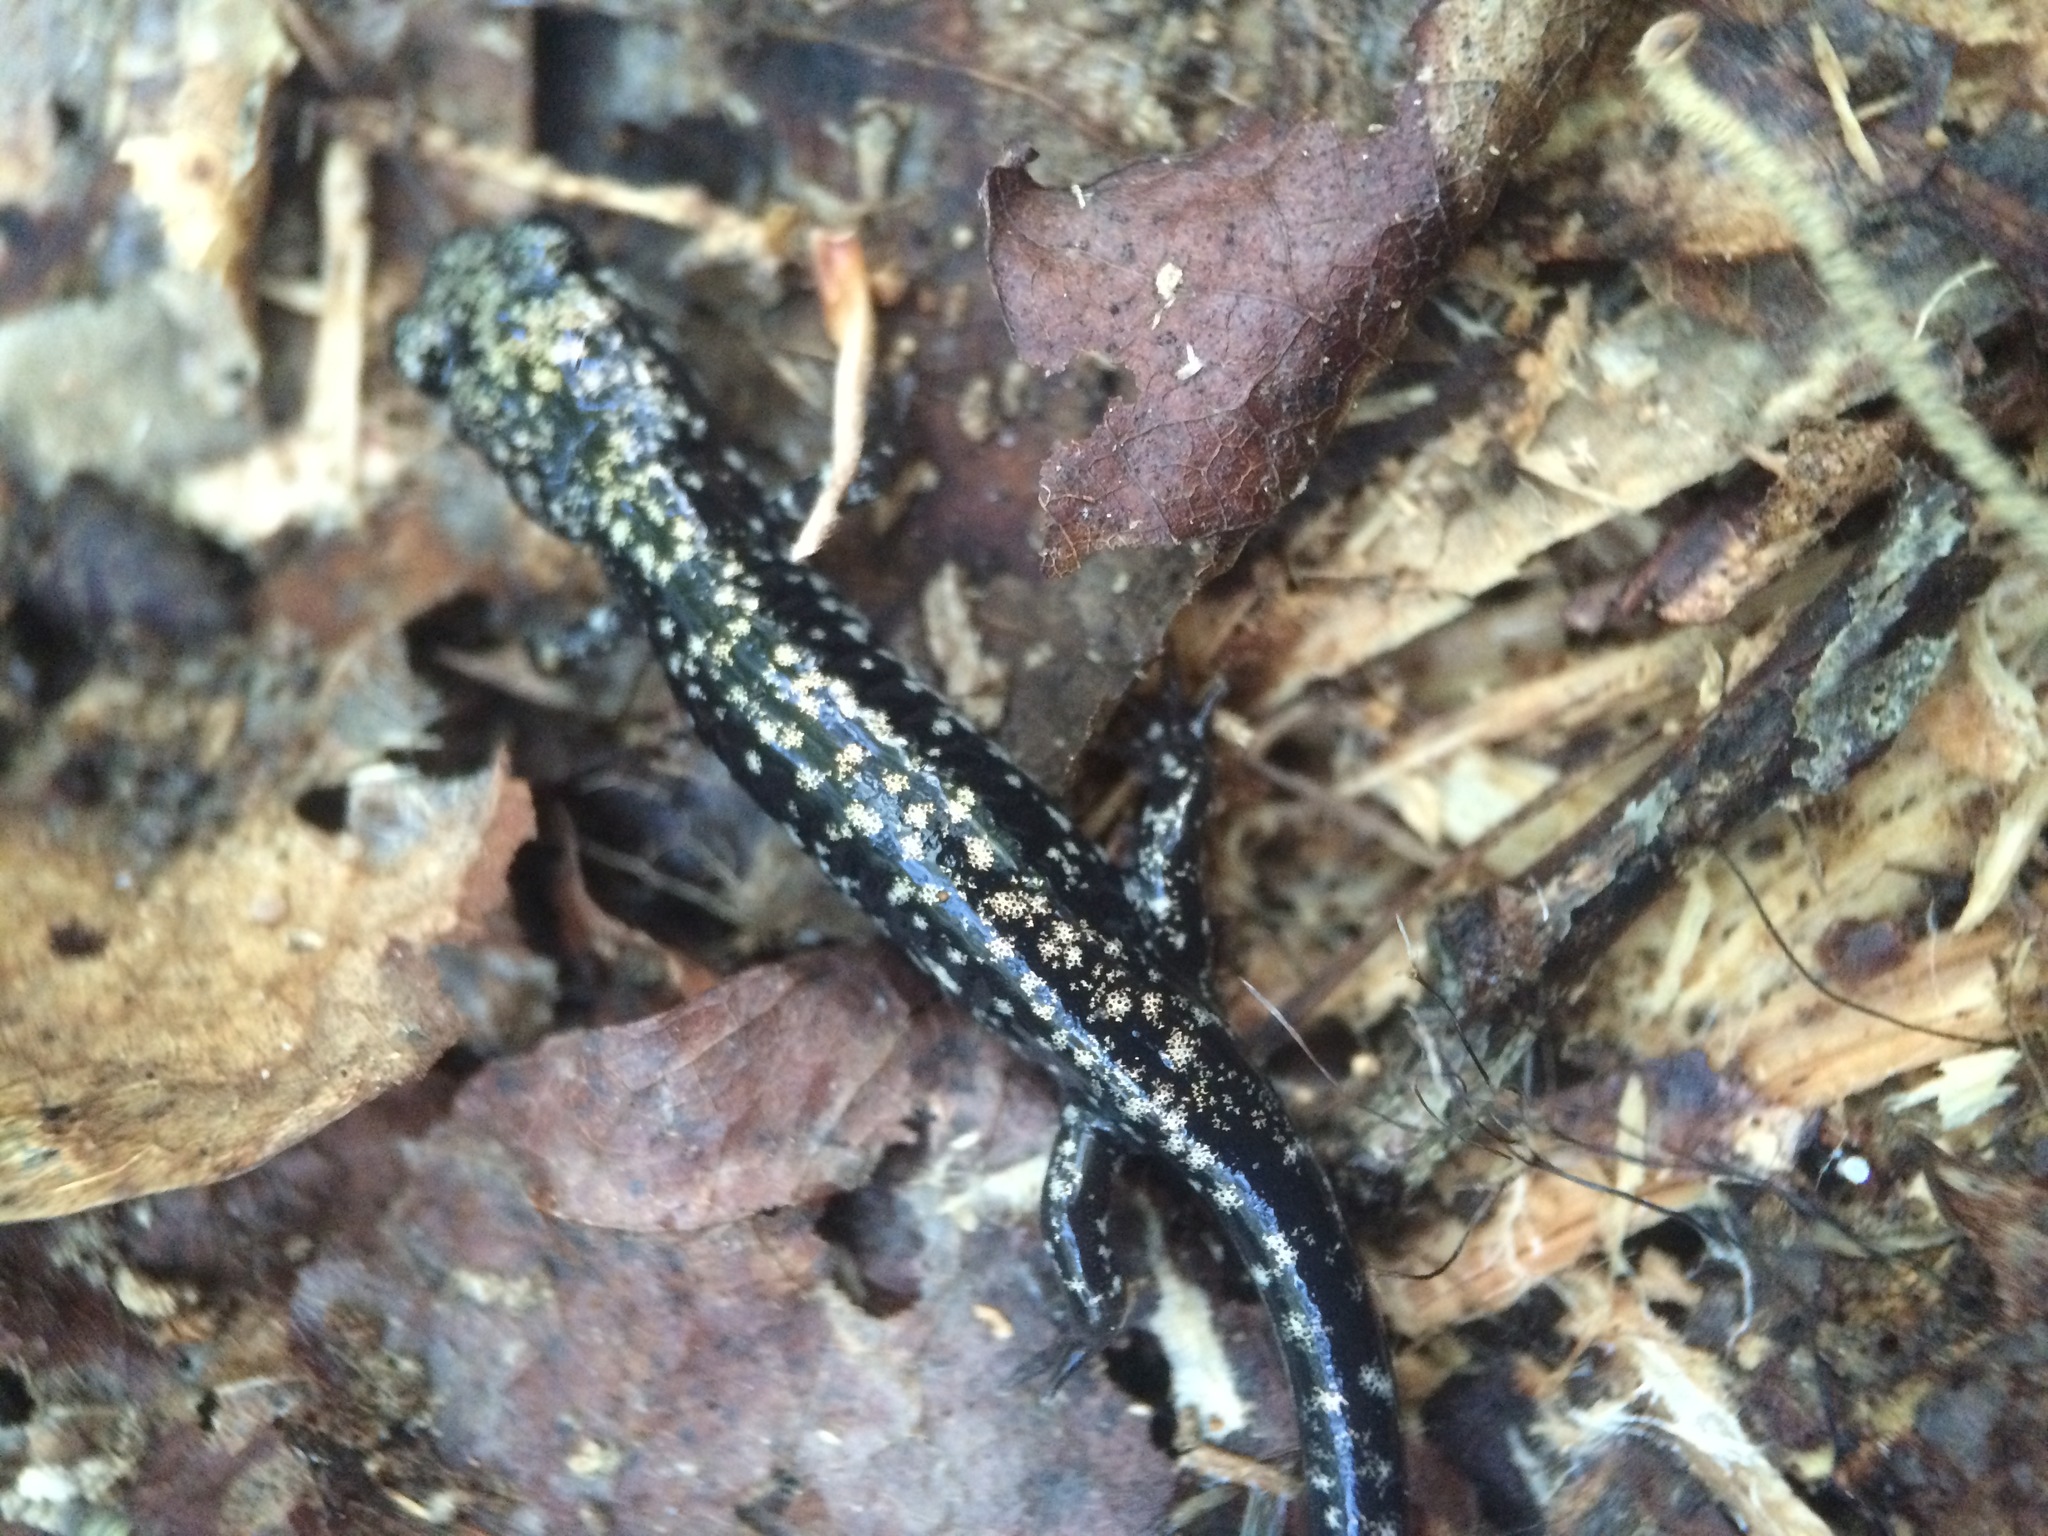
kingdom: Animalia
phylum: Chordata
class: Amphibia
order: Caudata
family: Plethodontidae
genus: Plethodon
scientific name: Plethodon mississippi
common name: Mississippi slimy salamander
